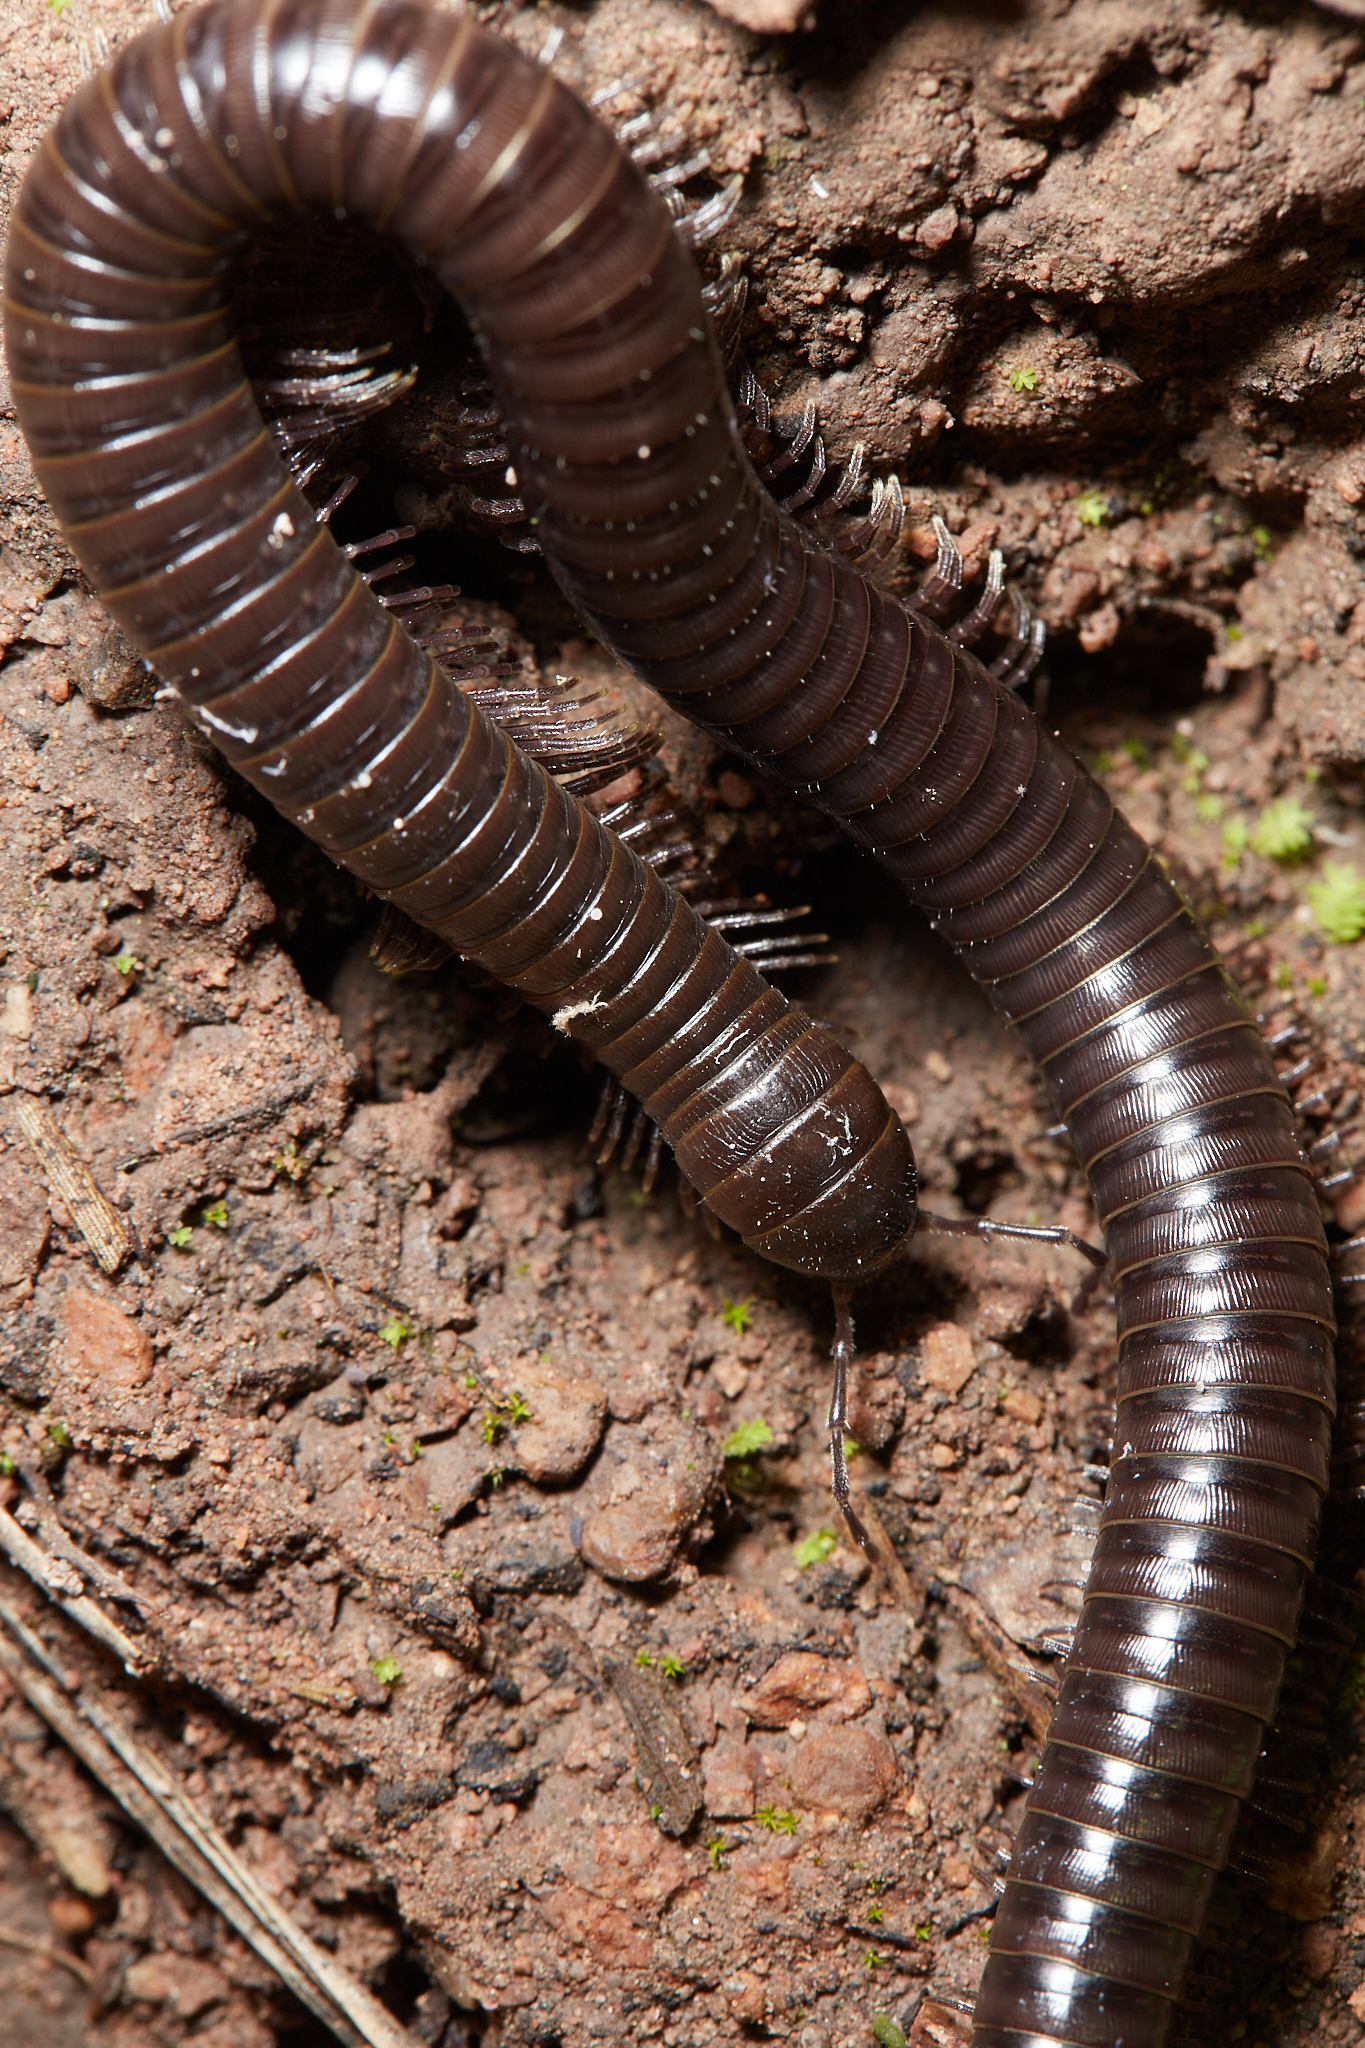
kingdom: Animalia
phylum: Arthropoda
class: Diplopoda
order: Julida
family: Paeromopodidae
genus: Paeromopus
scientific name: Paeromopus angusticeps
